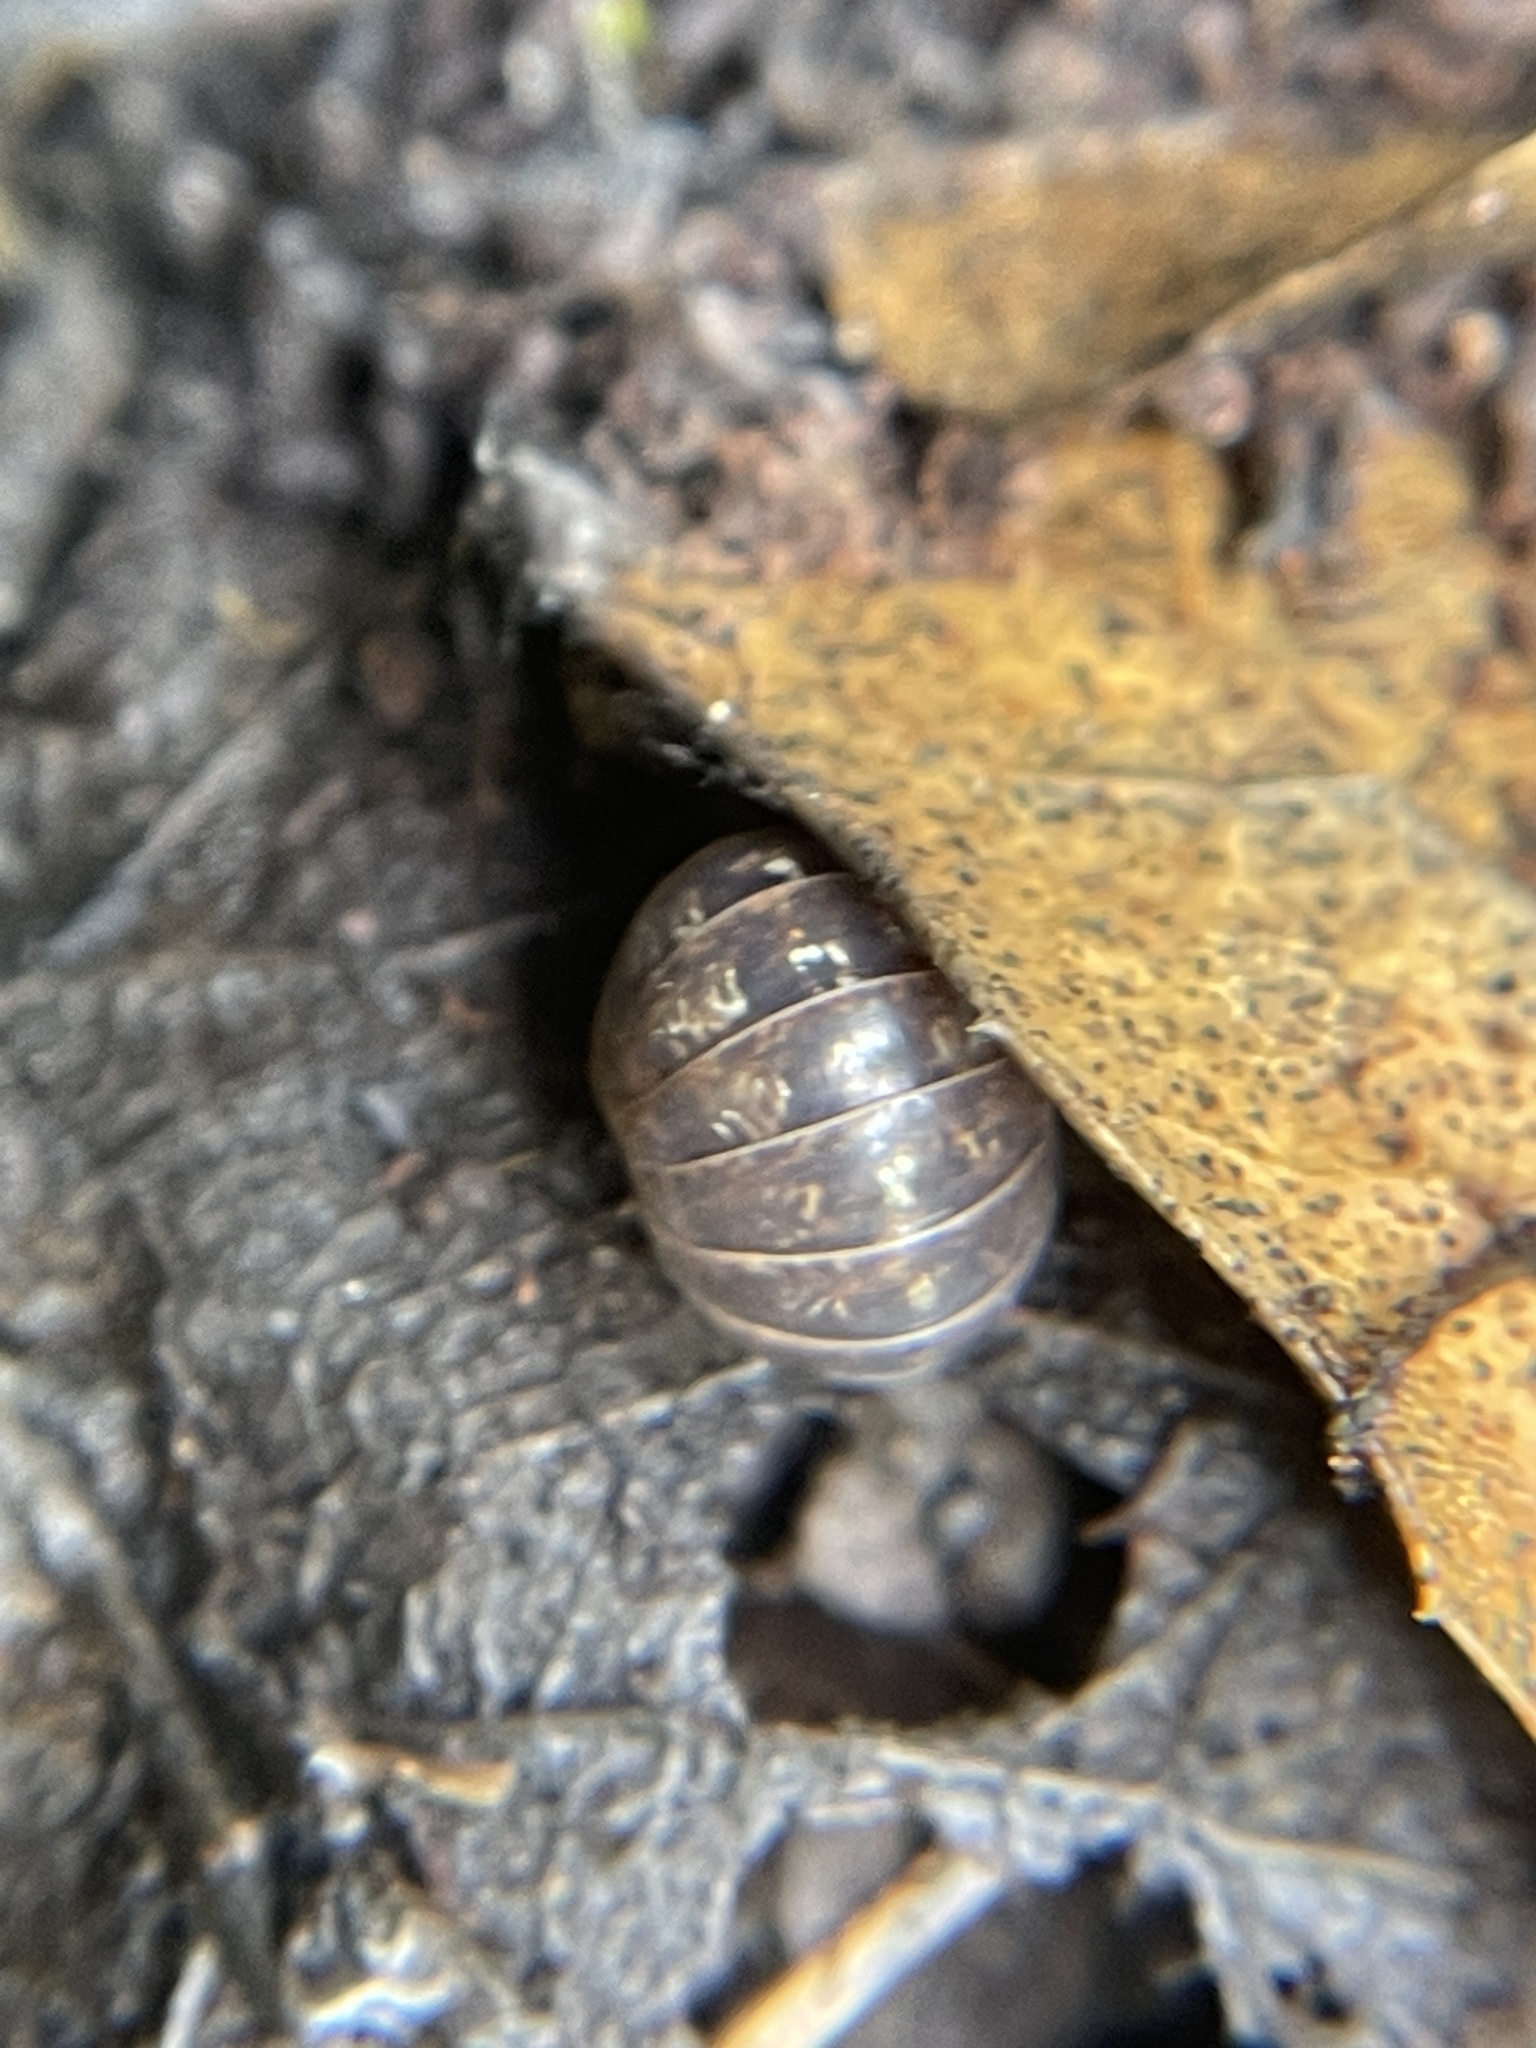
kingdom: Animalia
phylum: Arthropoda
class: Malacostraca
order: Isopoda
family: Armadillidiidae
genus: Armadillidium
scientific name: Armadillidium vulgare
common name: Common pill woodlouse
